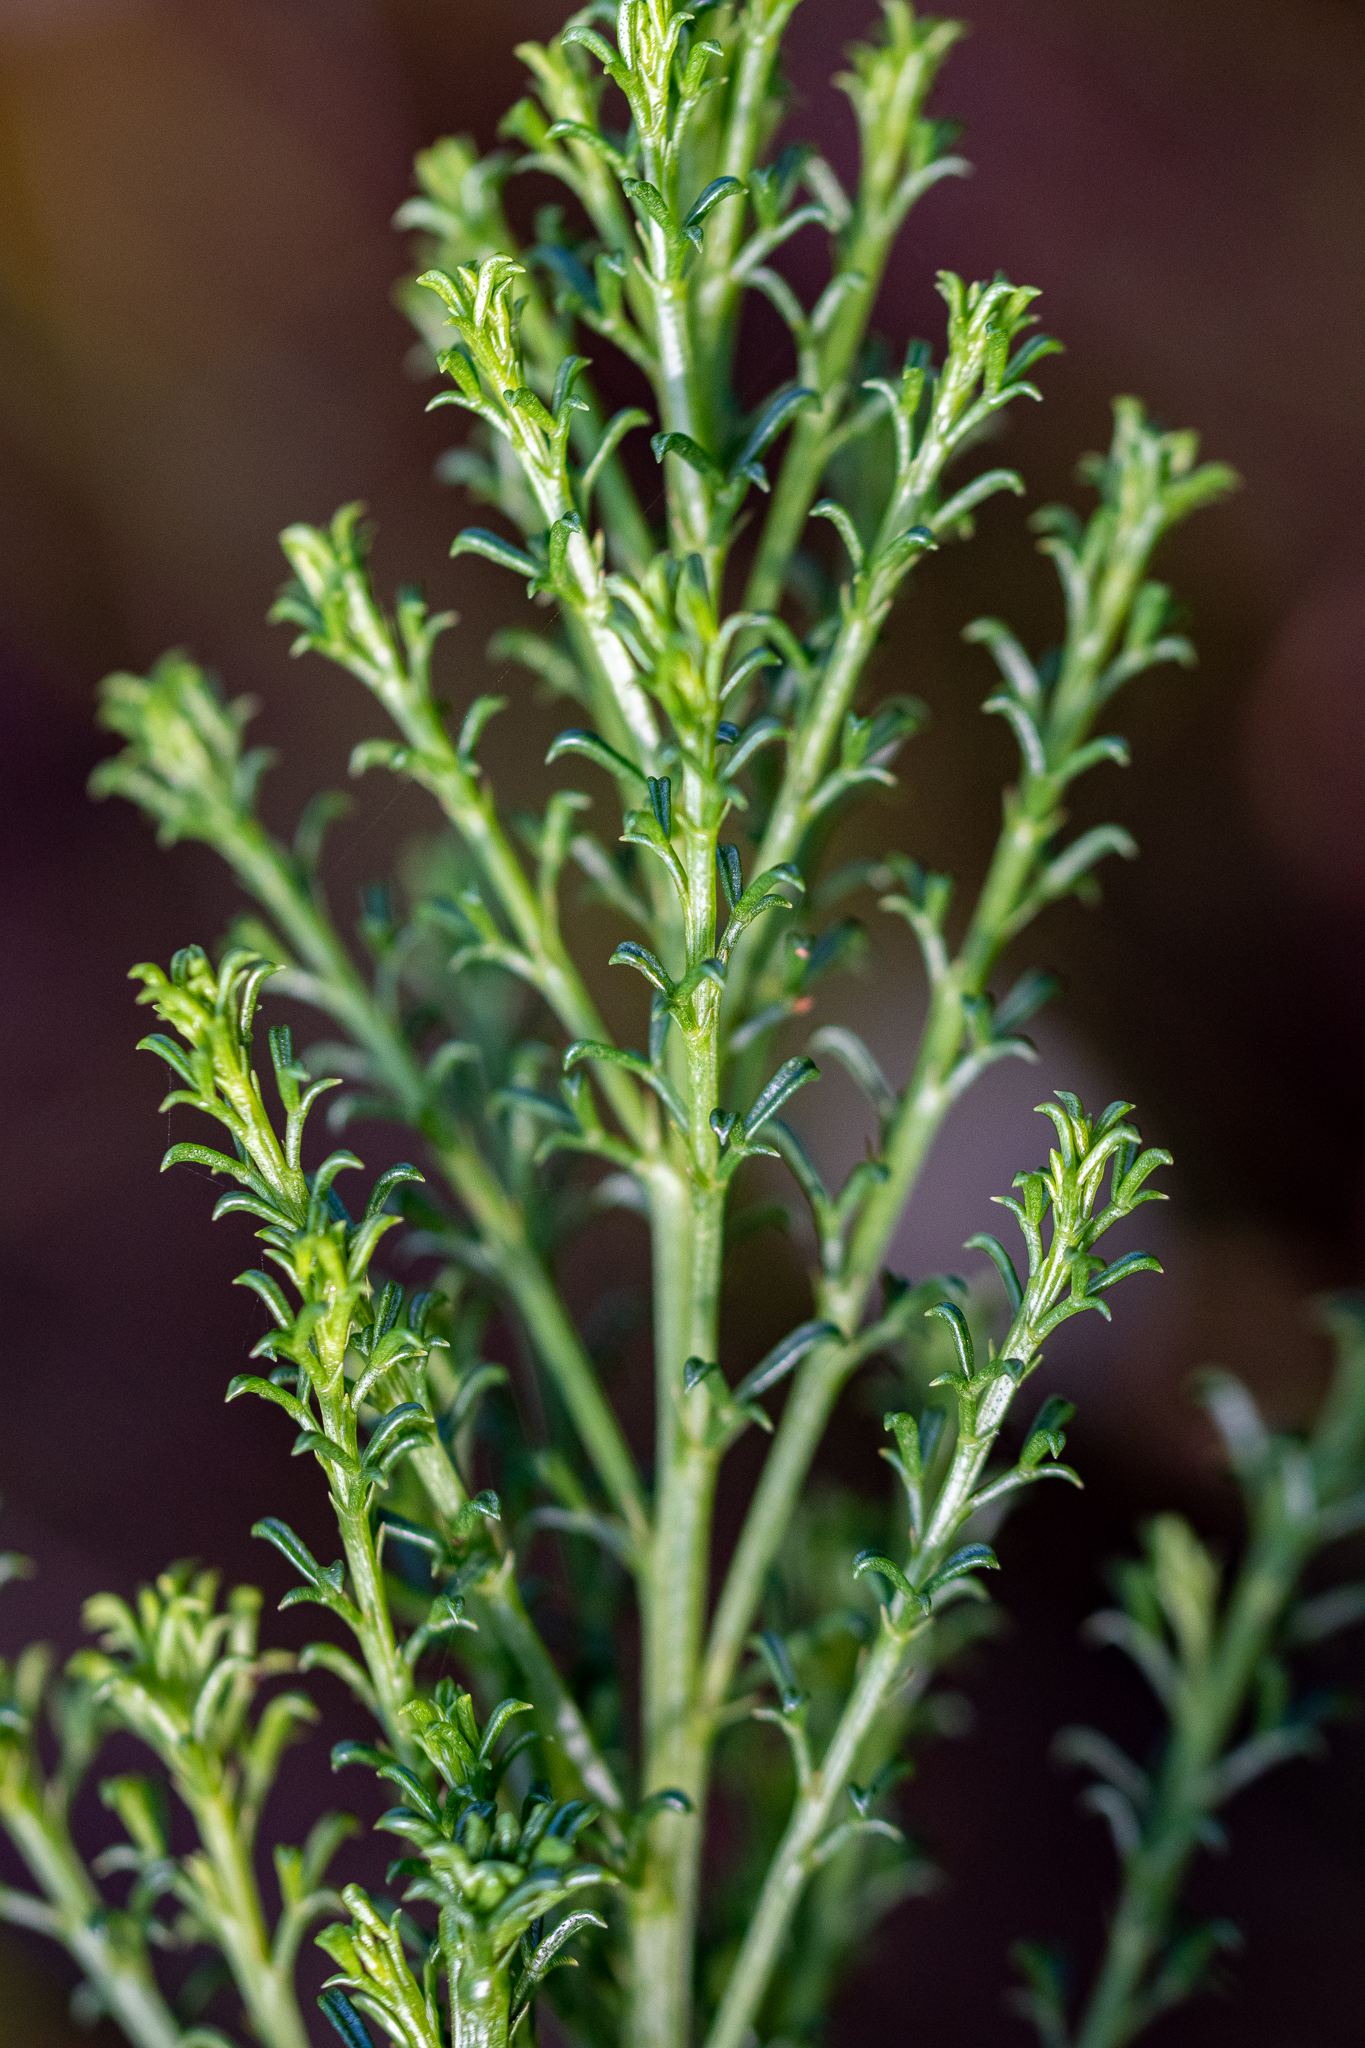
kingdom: Plantae
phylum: Tracheophyta
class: Magnoliopsida
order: Fabales
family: Fabaceae
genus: Psoralea
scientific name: Psoralea aculeata
